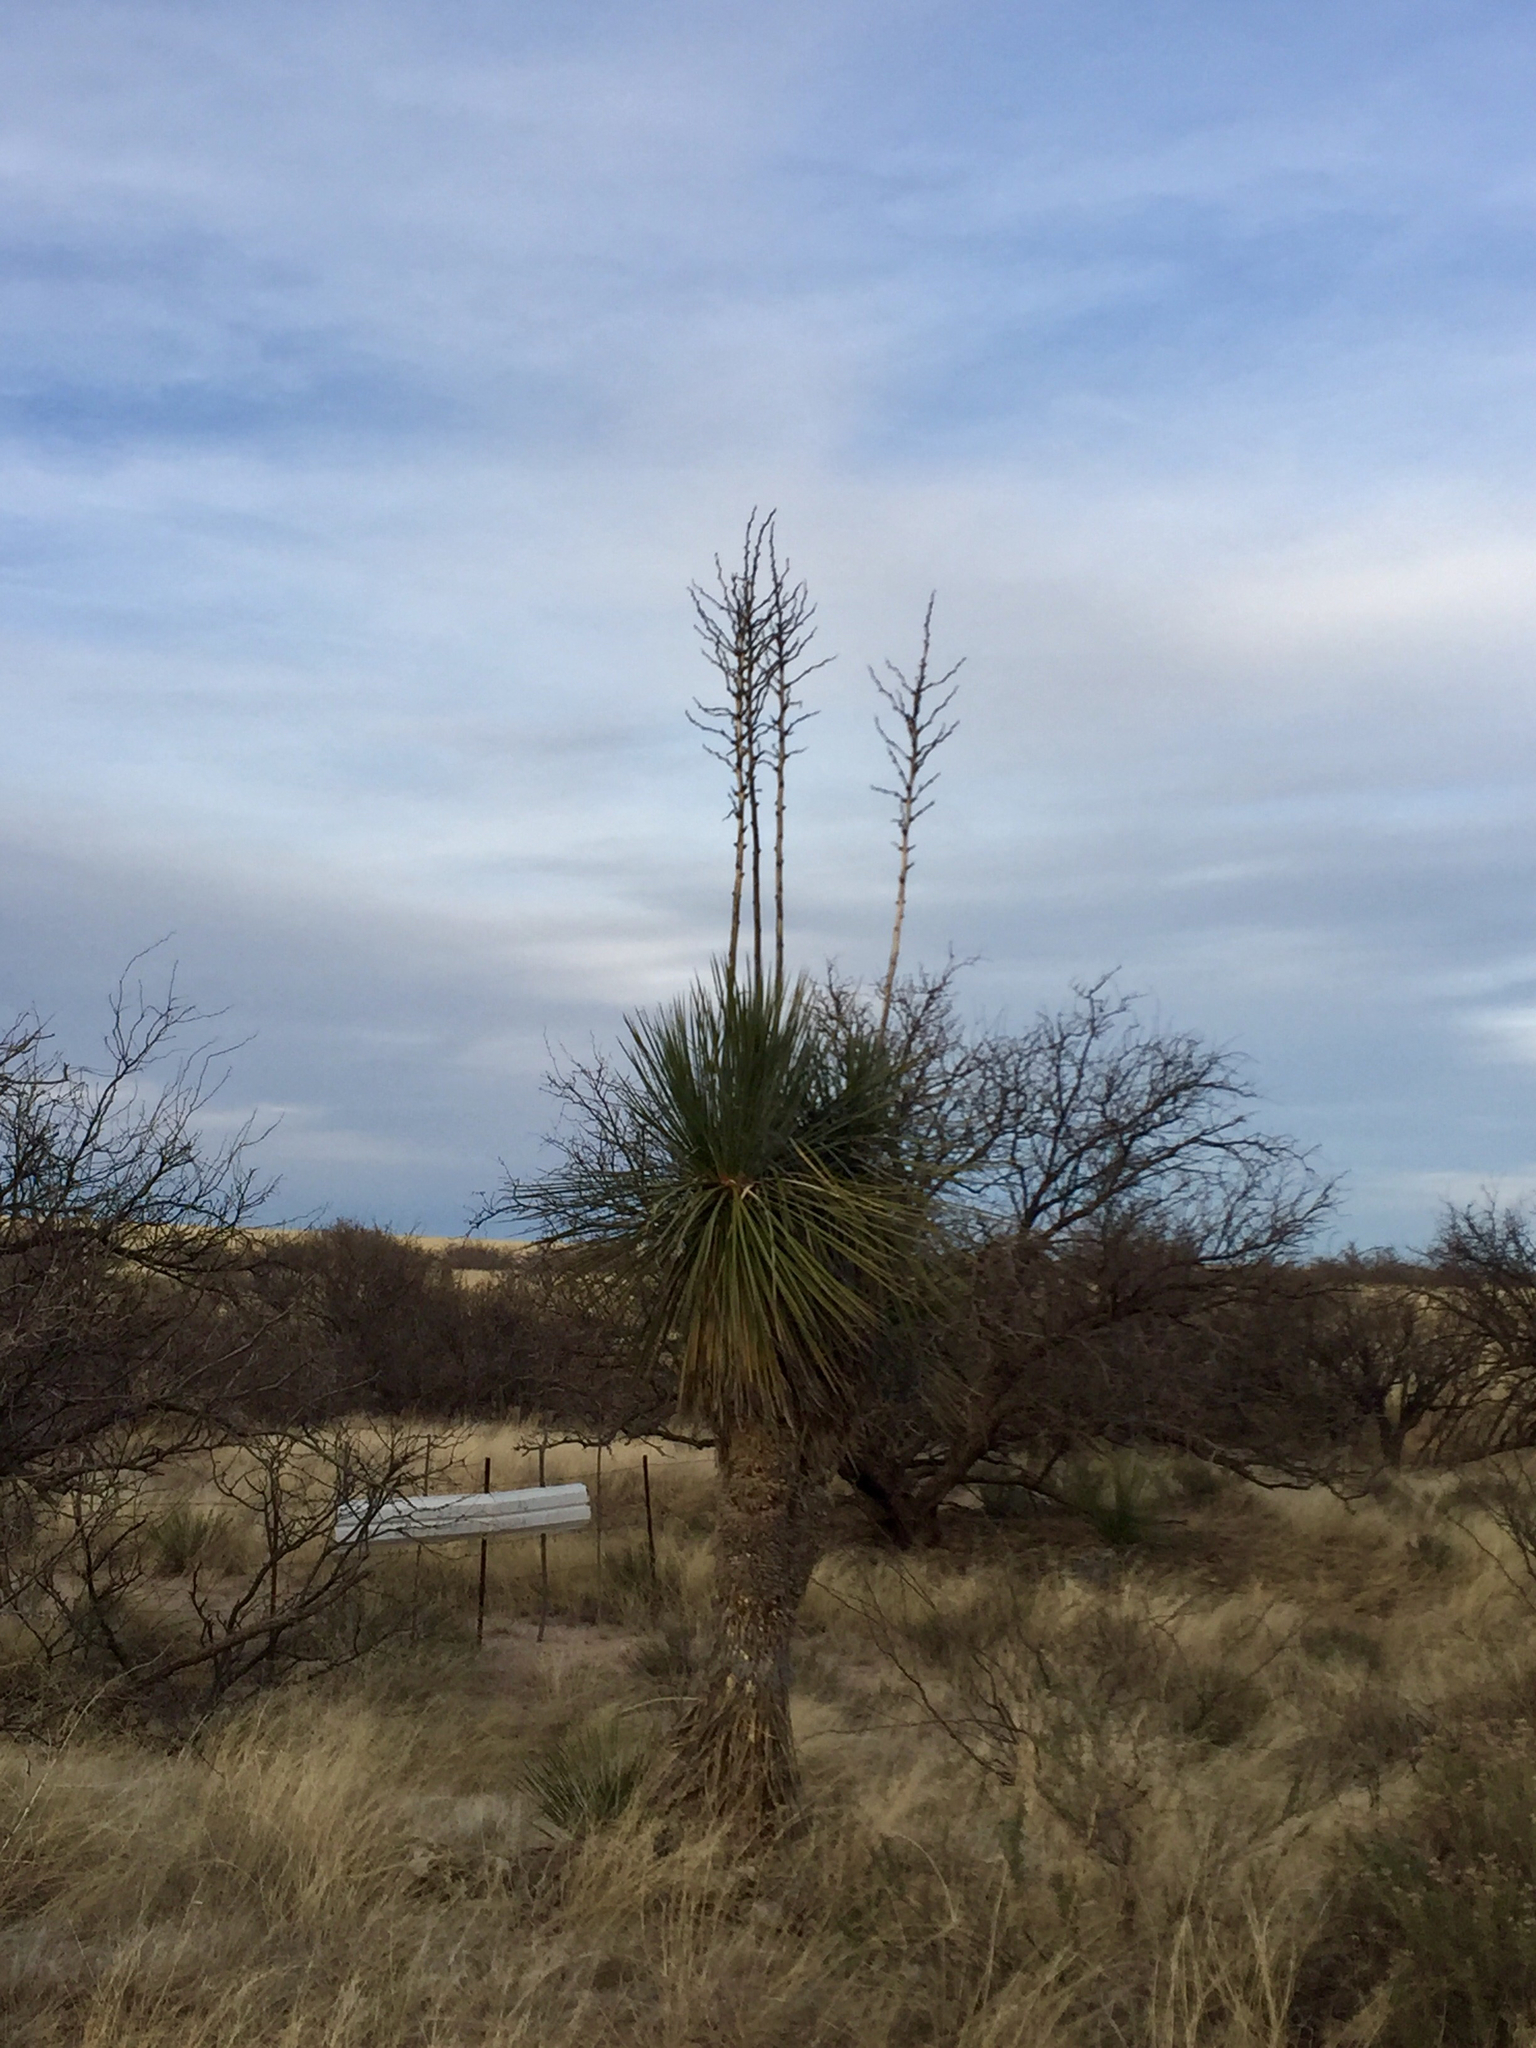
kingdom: Plantae
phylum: Tracheophyta
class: Liliopsida
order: Asparagales
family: Asparagaceae
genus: Yucca
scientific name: Yucca elata
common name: Palmella
